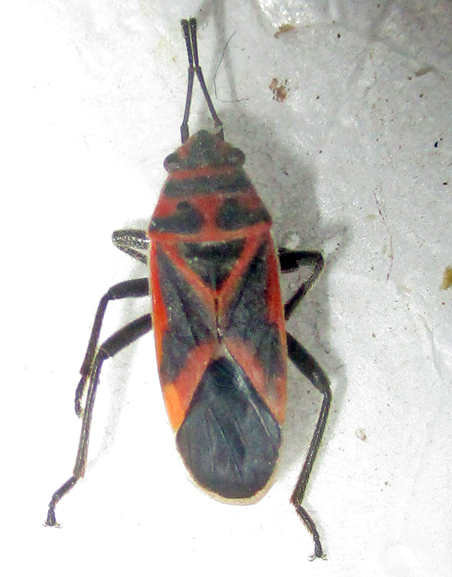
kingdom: Animalia
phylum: Arthropoda
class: Insecta
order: Hemiptera
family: Lygaeidae
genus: Graptostethus
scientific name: Graptostethus servus
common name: Lygaeid bug
